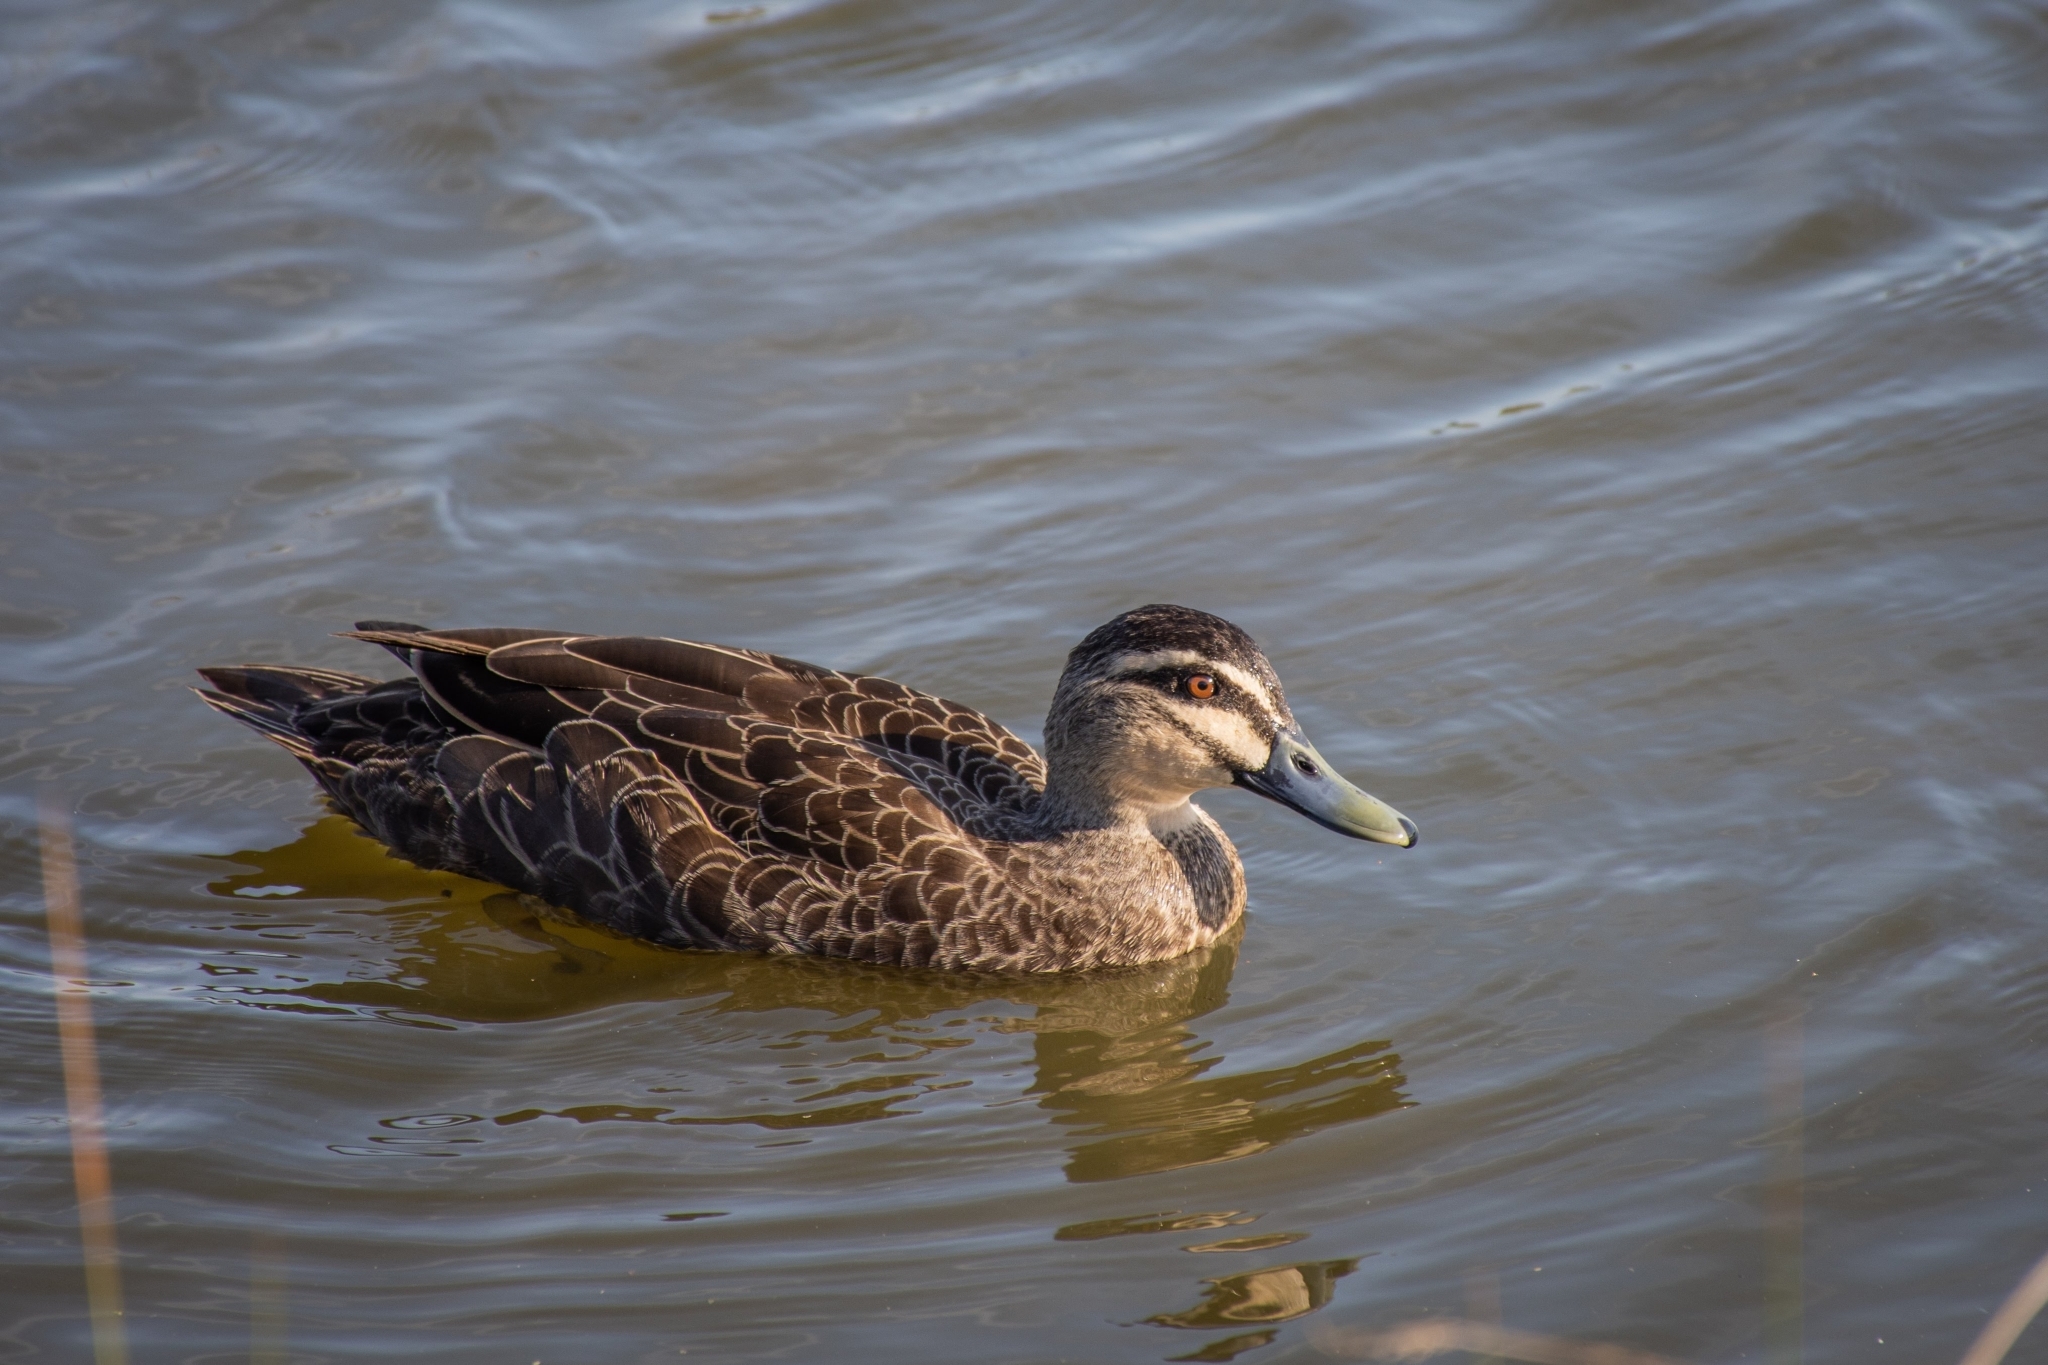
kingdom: Animalia
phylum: Chordata
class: Aves
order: Anseriformes
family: Anatidae
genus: Anas
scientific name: Anas superciliosa
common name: Pacific black duck
